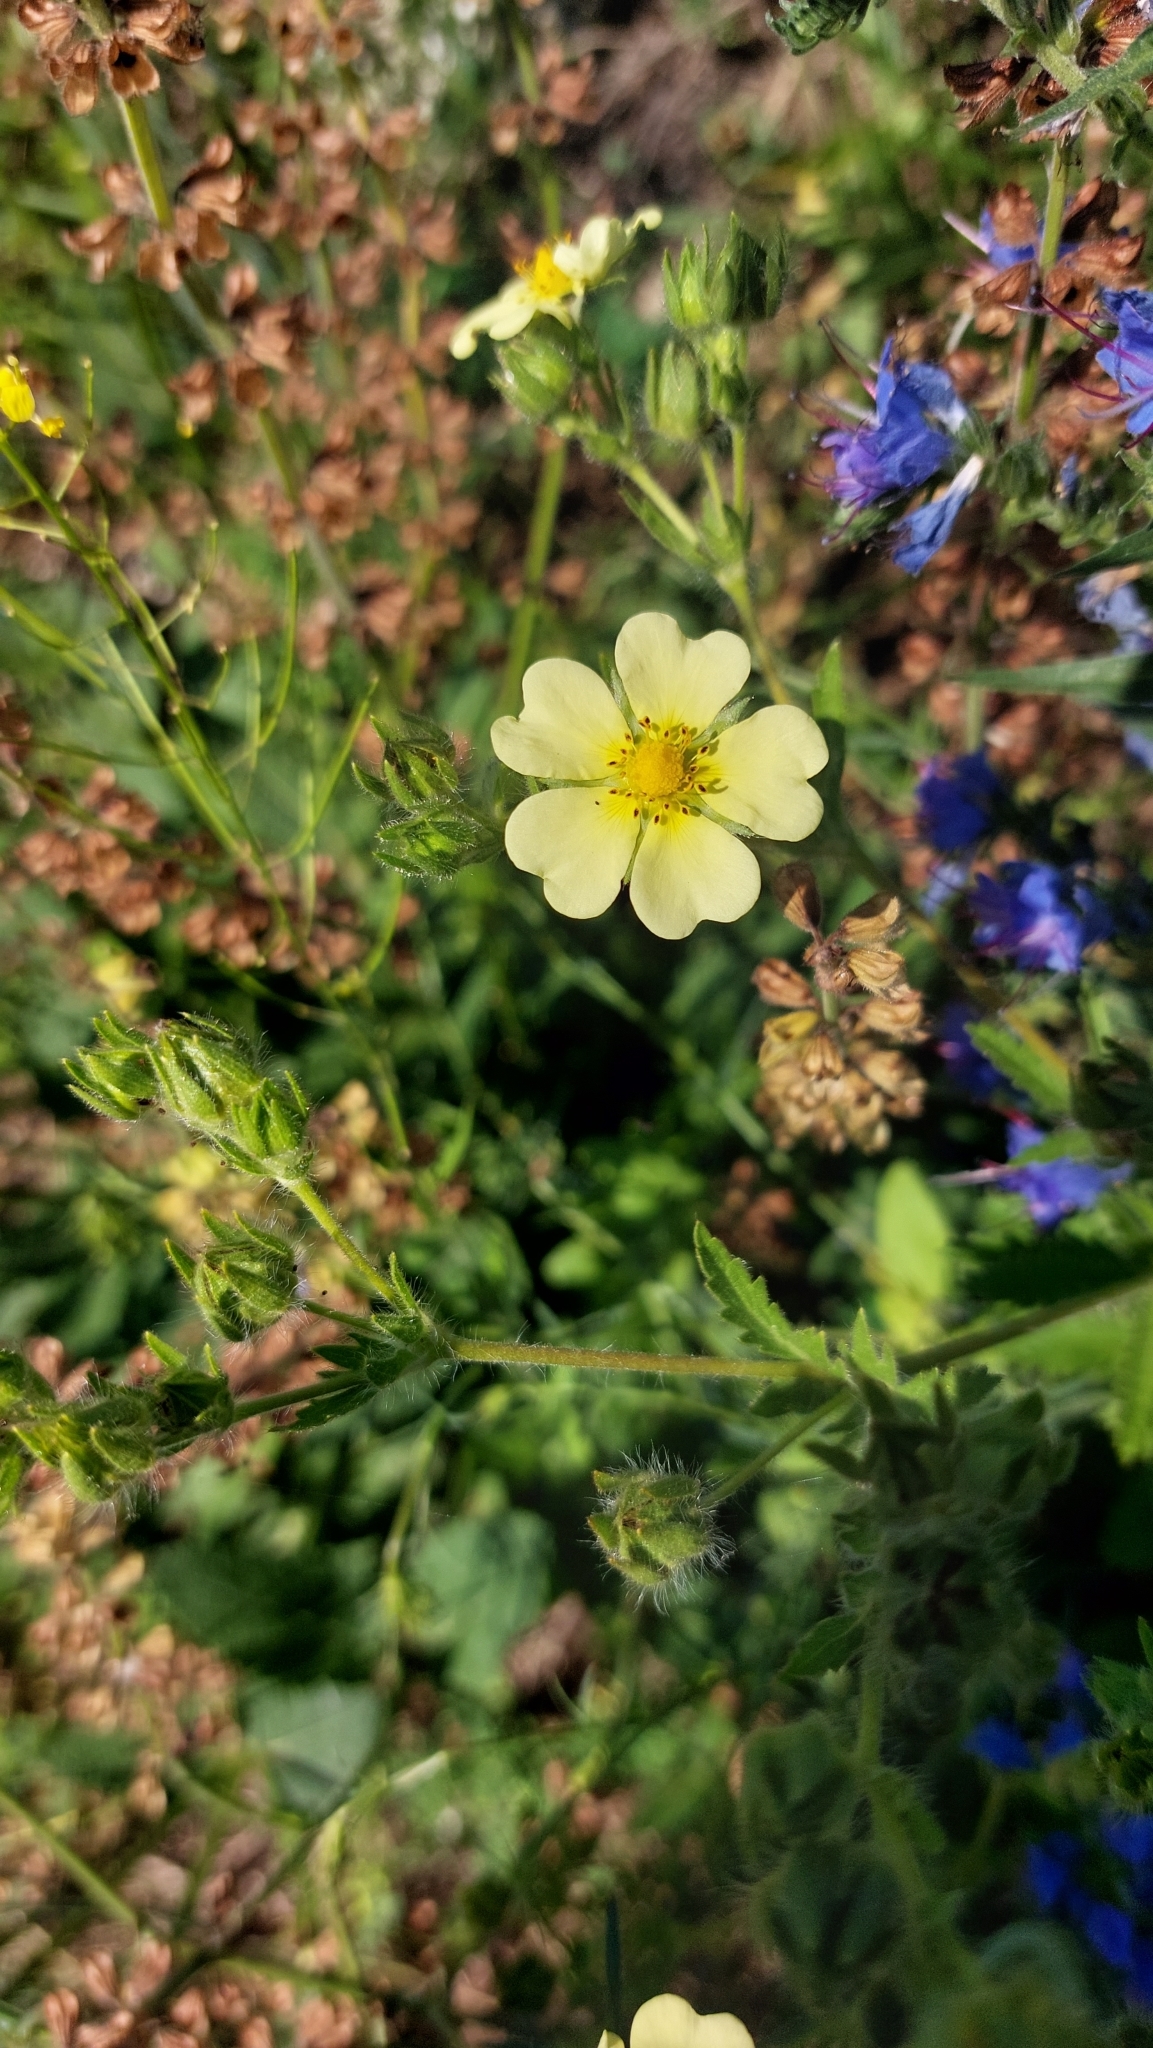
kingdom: Plantae
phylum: Tracheophyta
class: Magnoliopsida
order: Rosales
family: Rosaceae
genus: Potentilla
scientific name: Potentilla recta
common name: Sulphur cinquefoil
